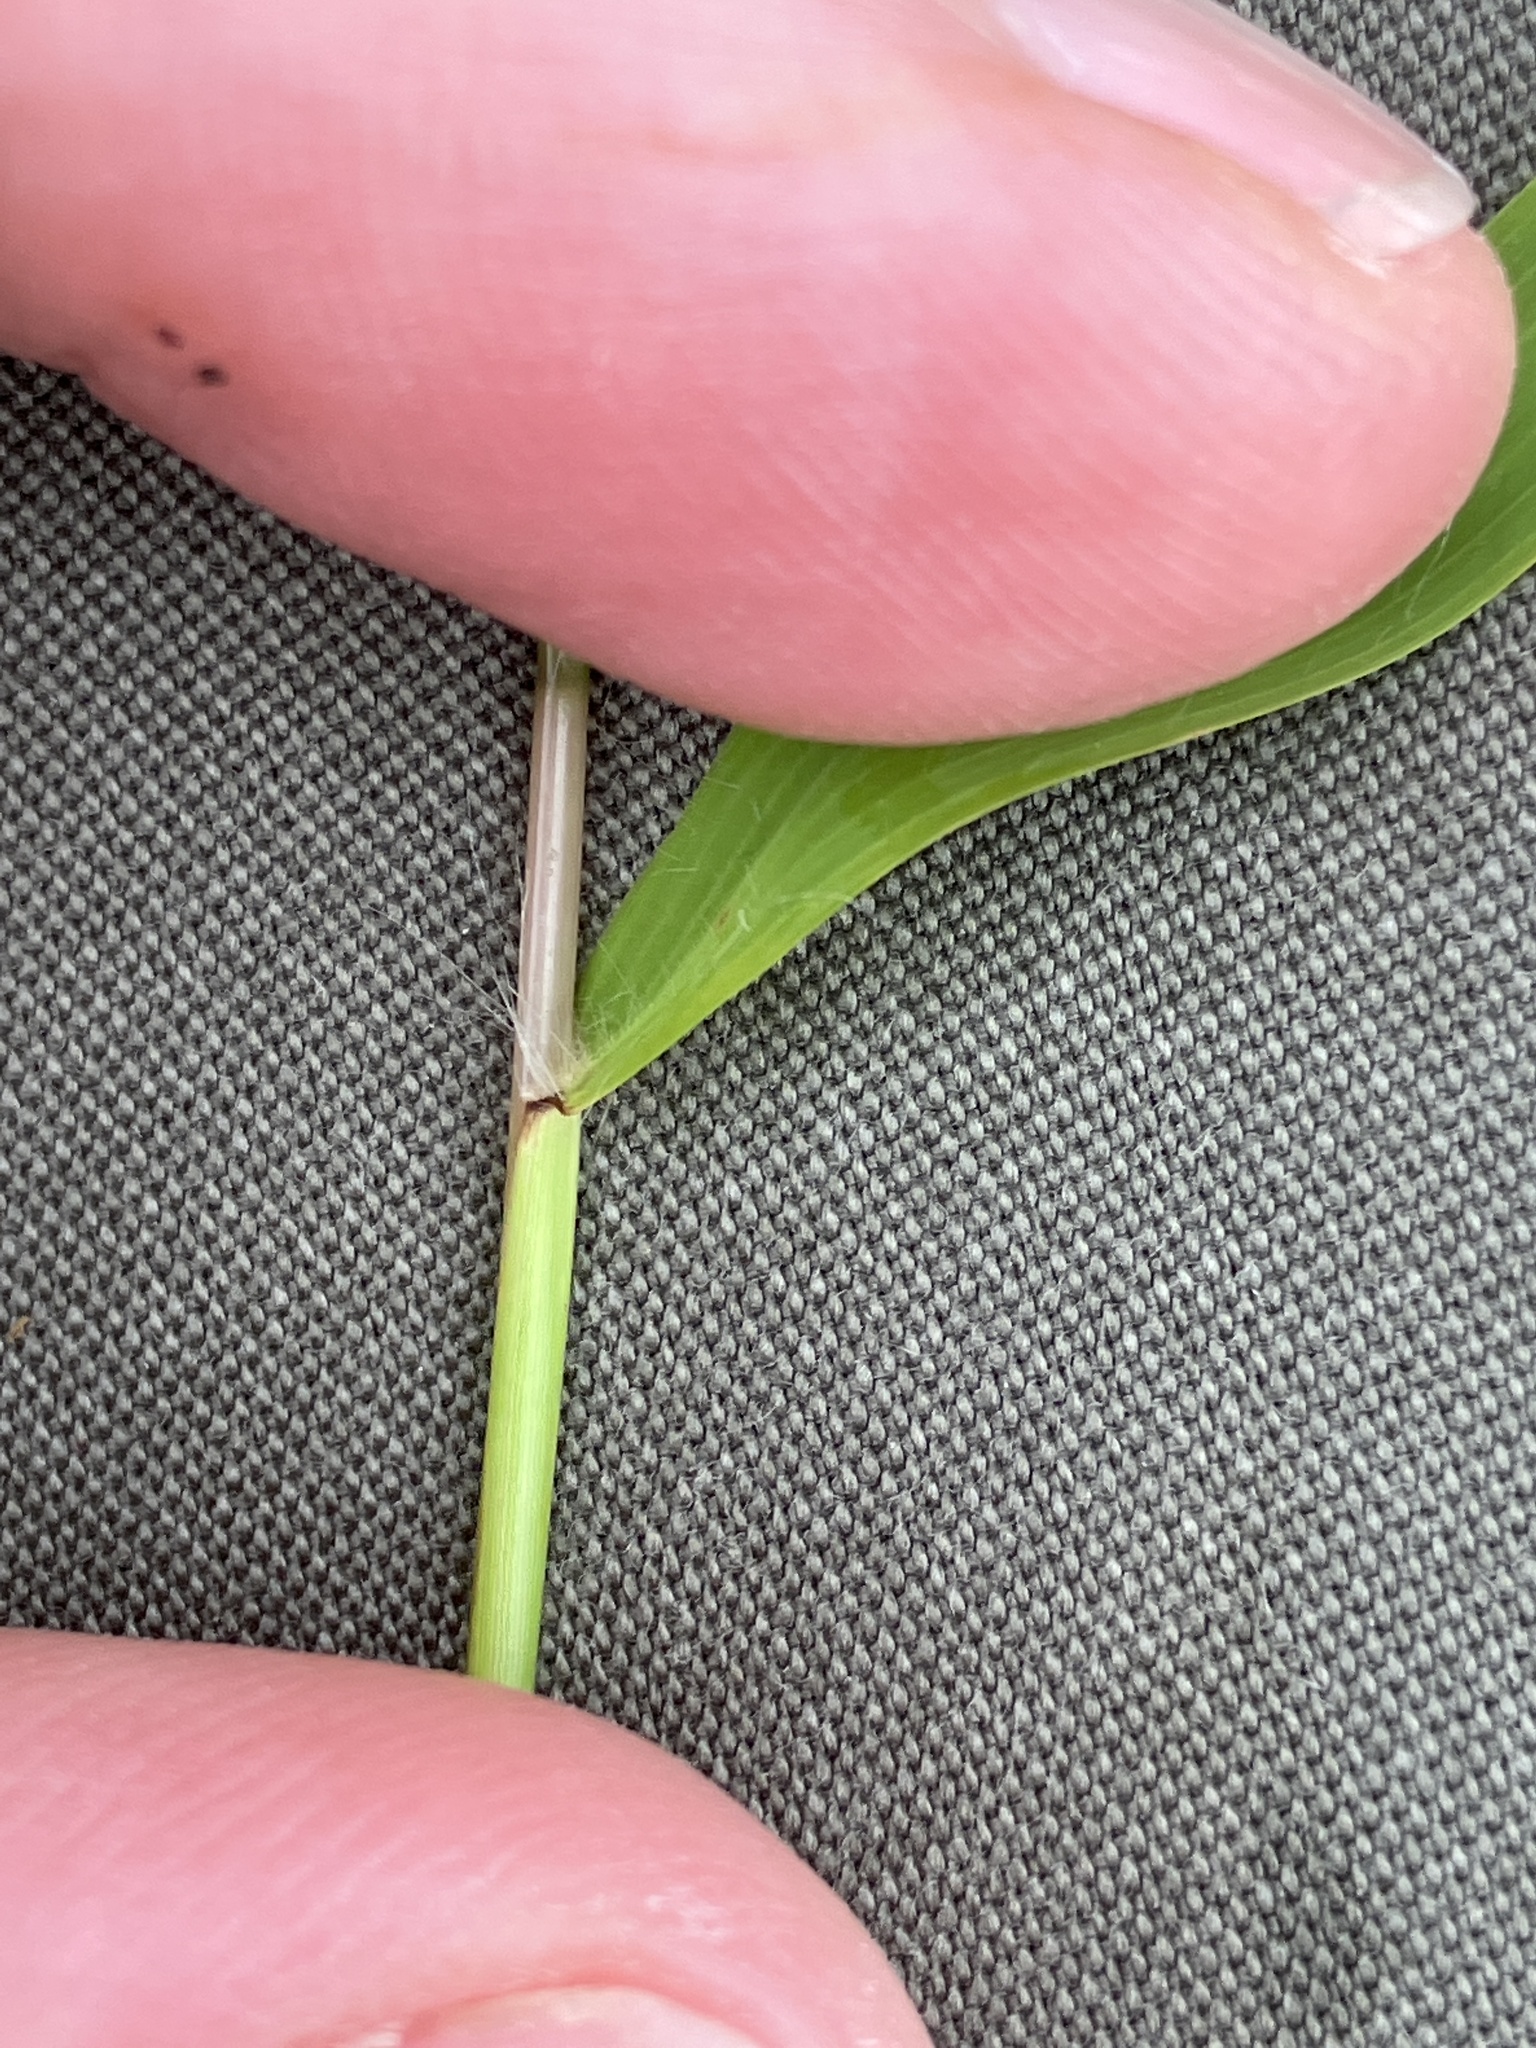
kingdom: Plantae
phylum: Tracheophyta
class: Liliopsida
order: Poales
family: Poaceae
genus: Polytrias
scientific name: Polytrias indica
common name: Indian murainagrass
